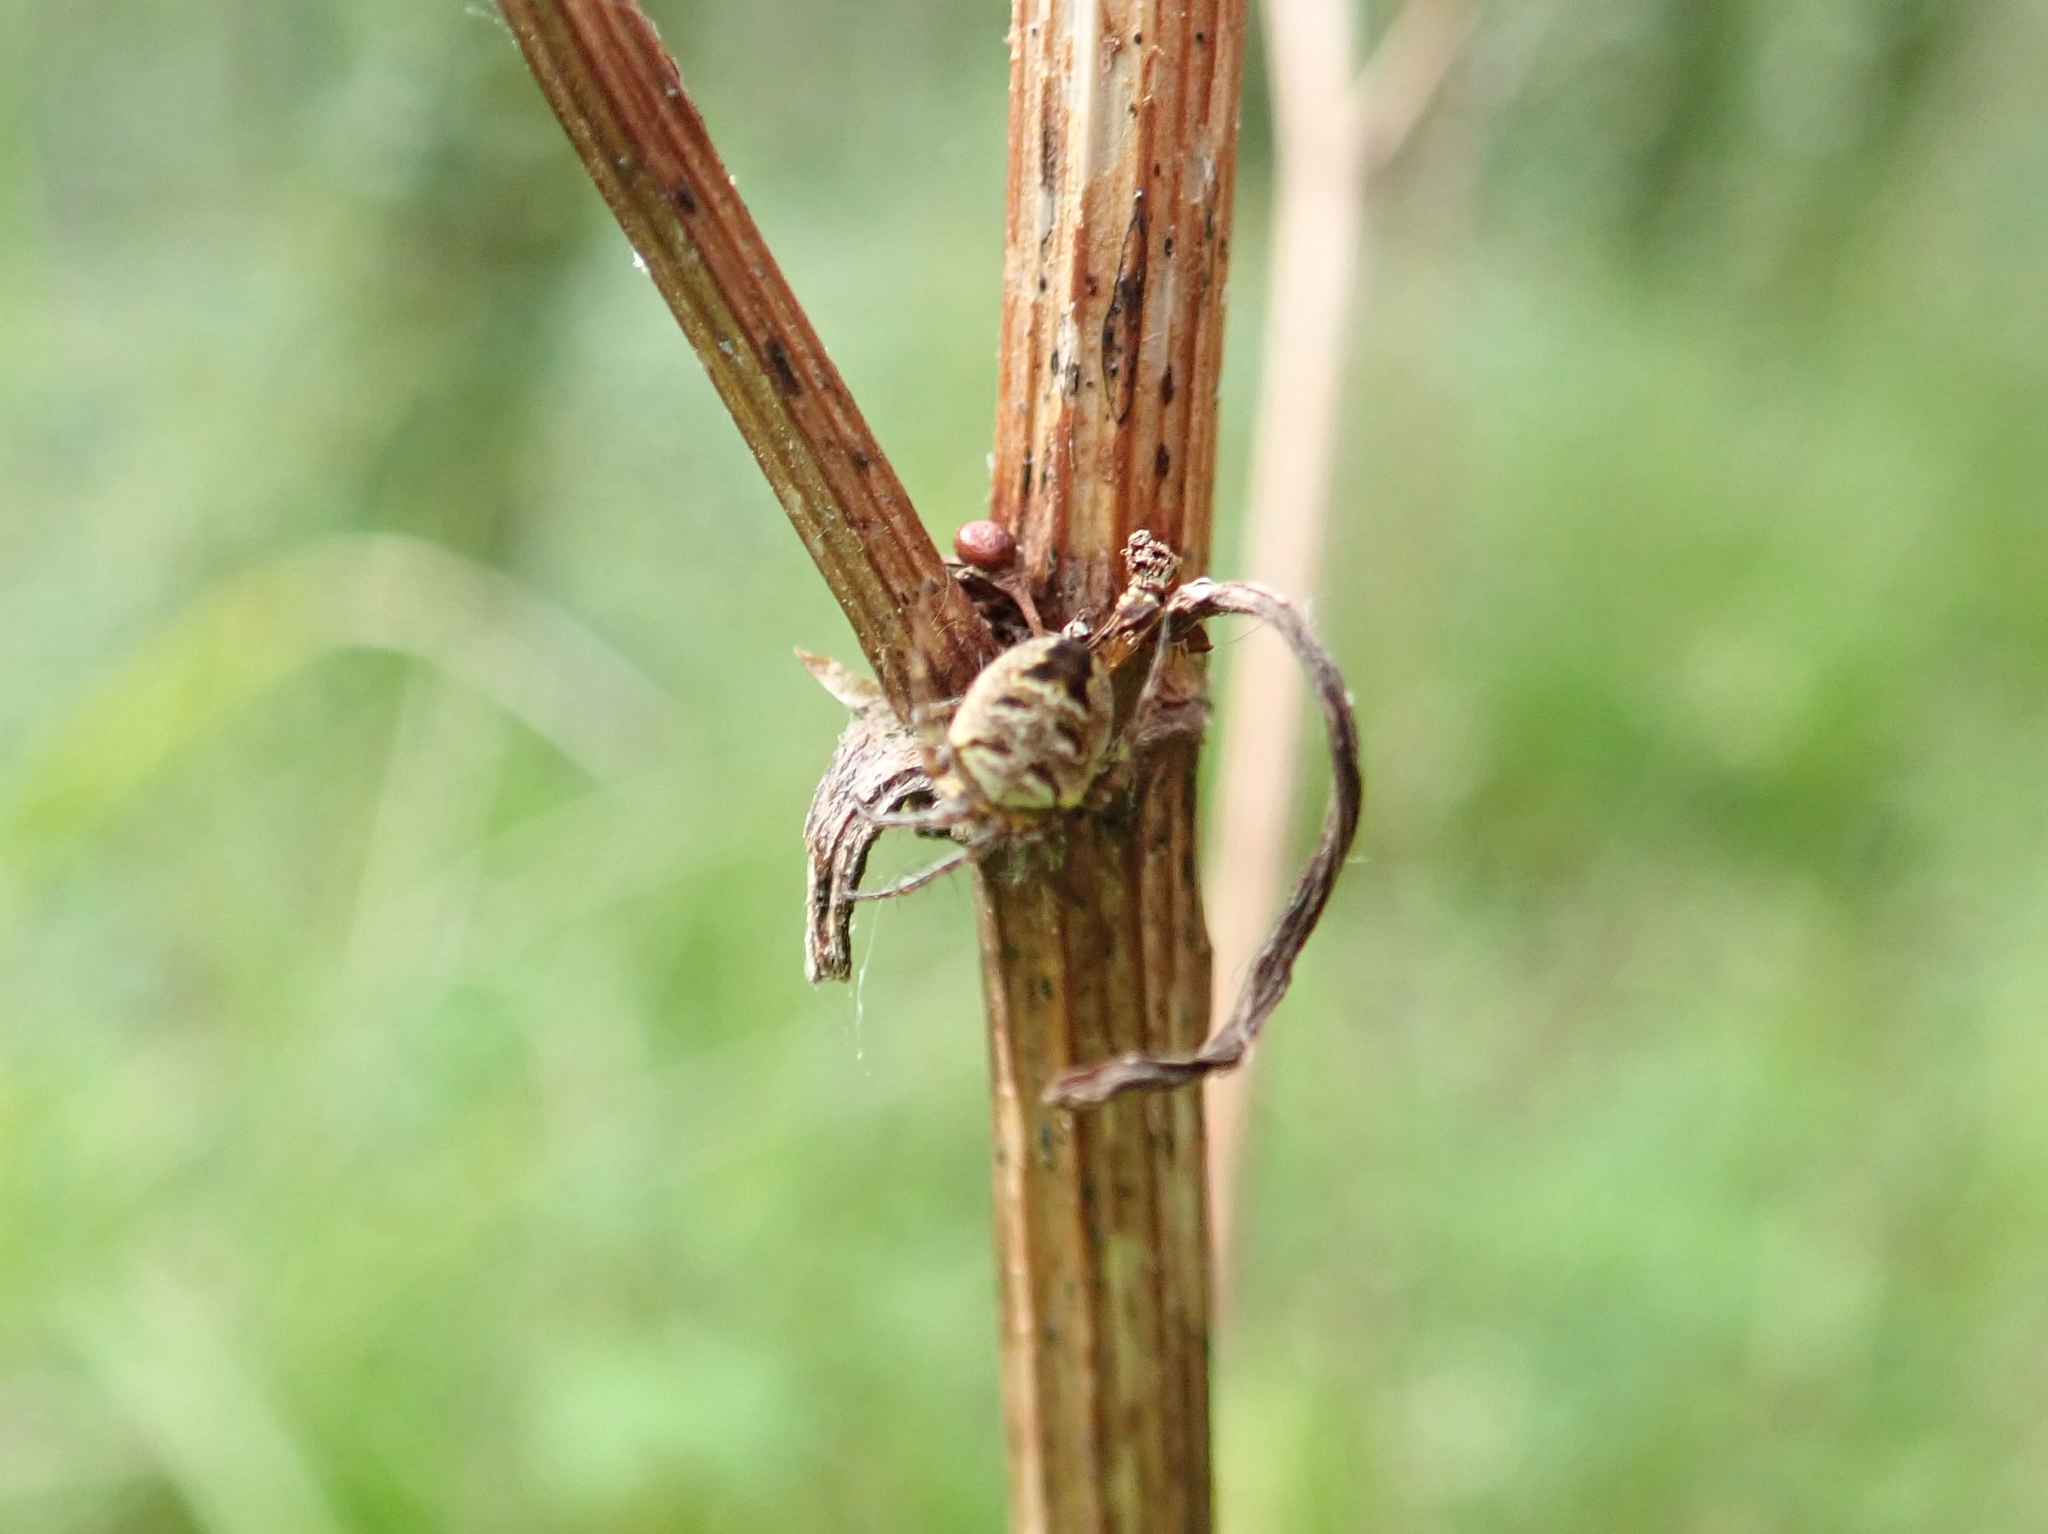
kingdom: Animalia
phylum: Arthropoda
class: Arachnida
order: Araneae
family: Araneidae
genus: Zilla
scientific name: Zilla diodia
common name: Zilla diodia
